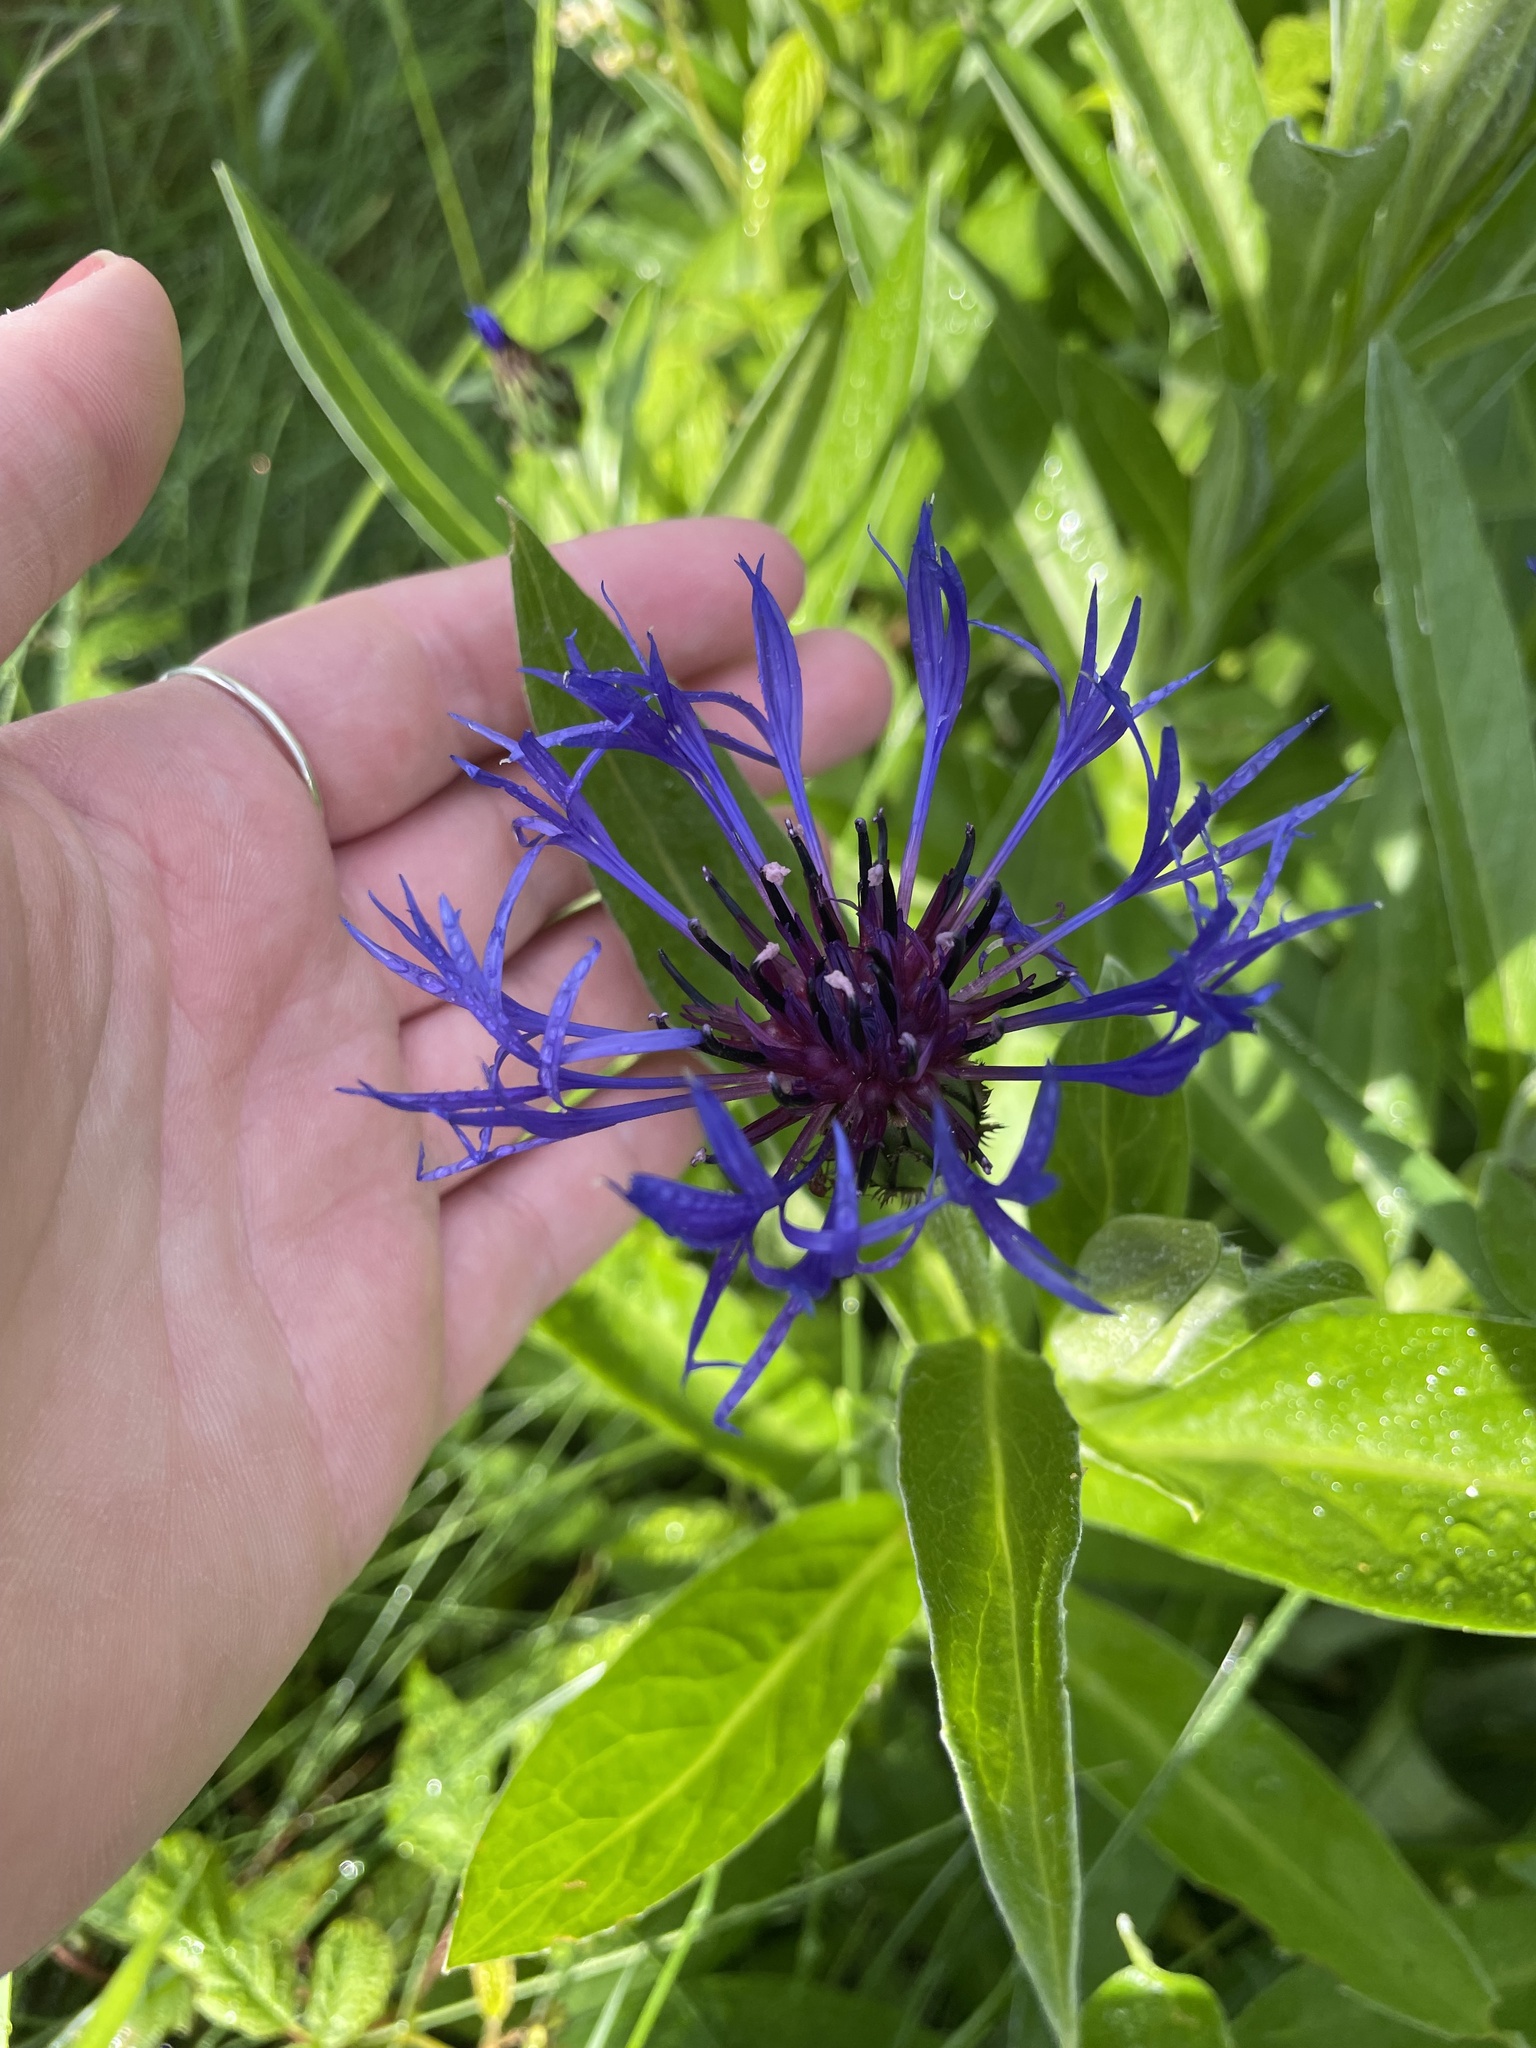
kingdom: Plantae
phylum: Tracheophyta
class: Magnoliopsida
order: Asterales
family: Asteraceae
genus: Centaurea
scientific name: Centaurea montana
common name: Perennial cornflower
